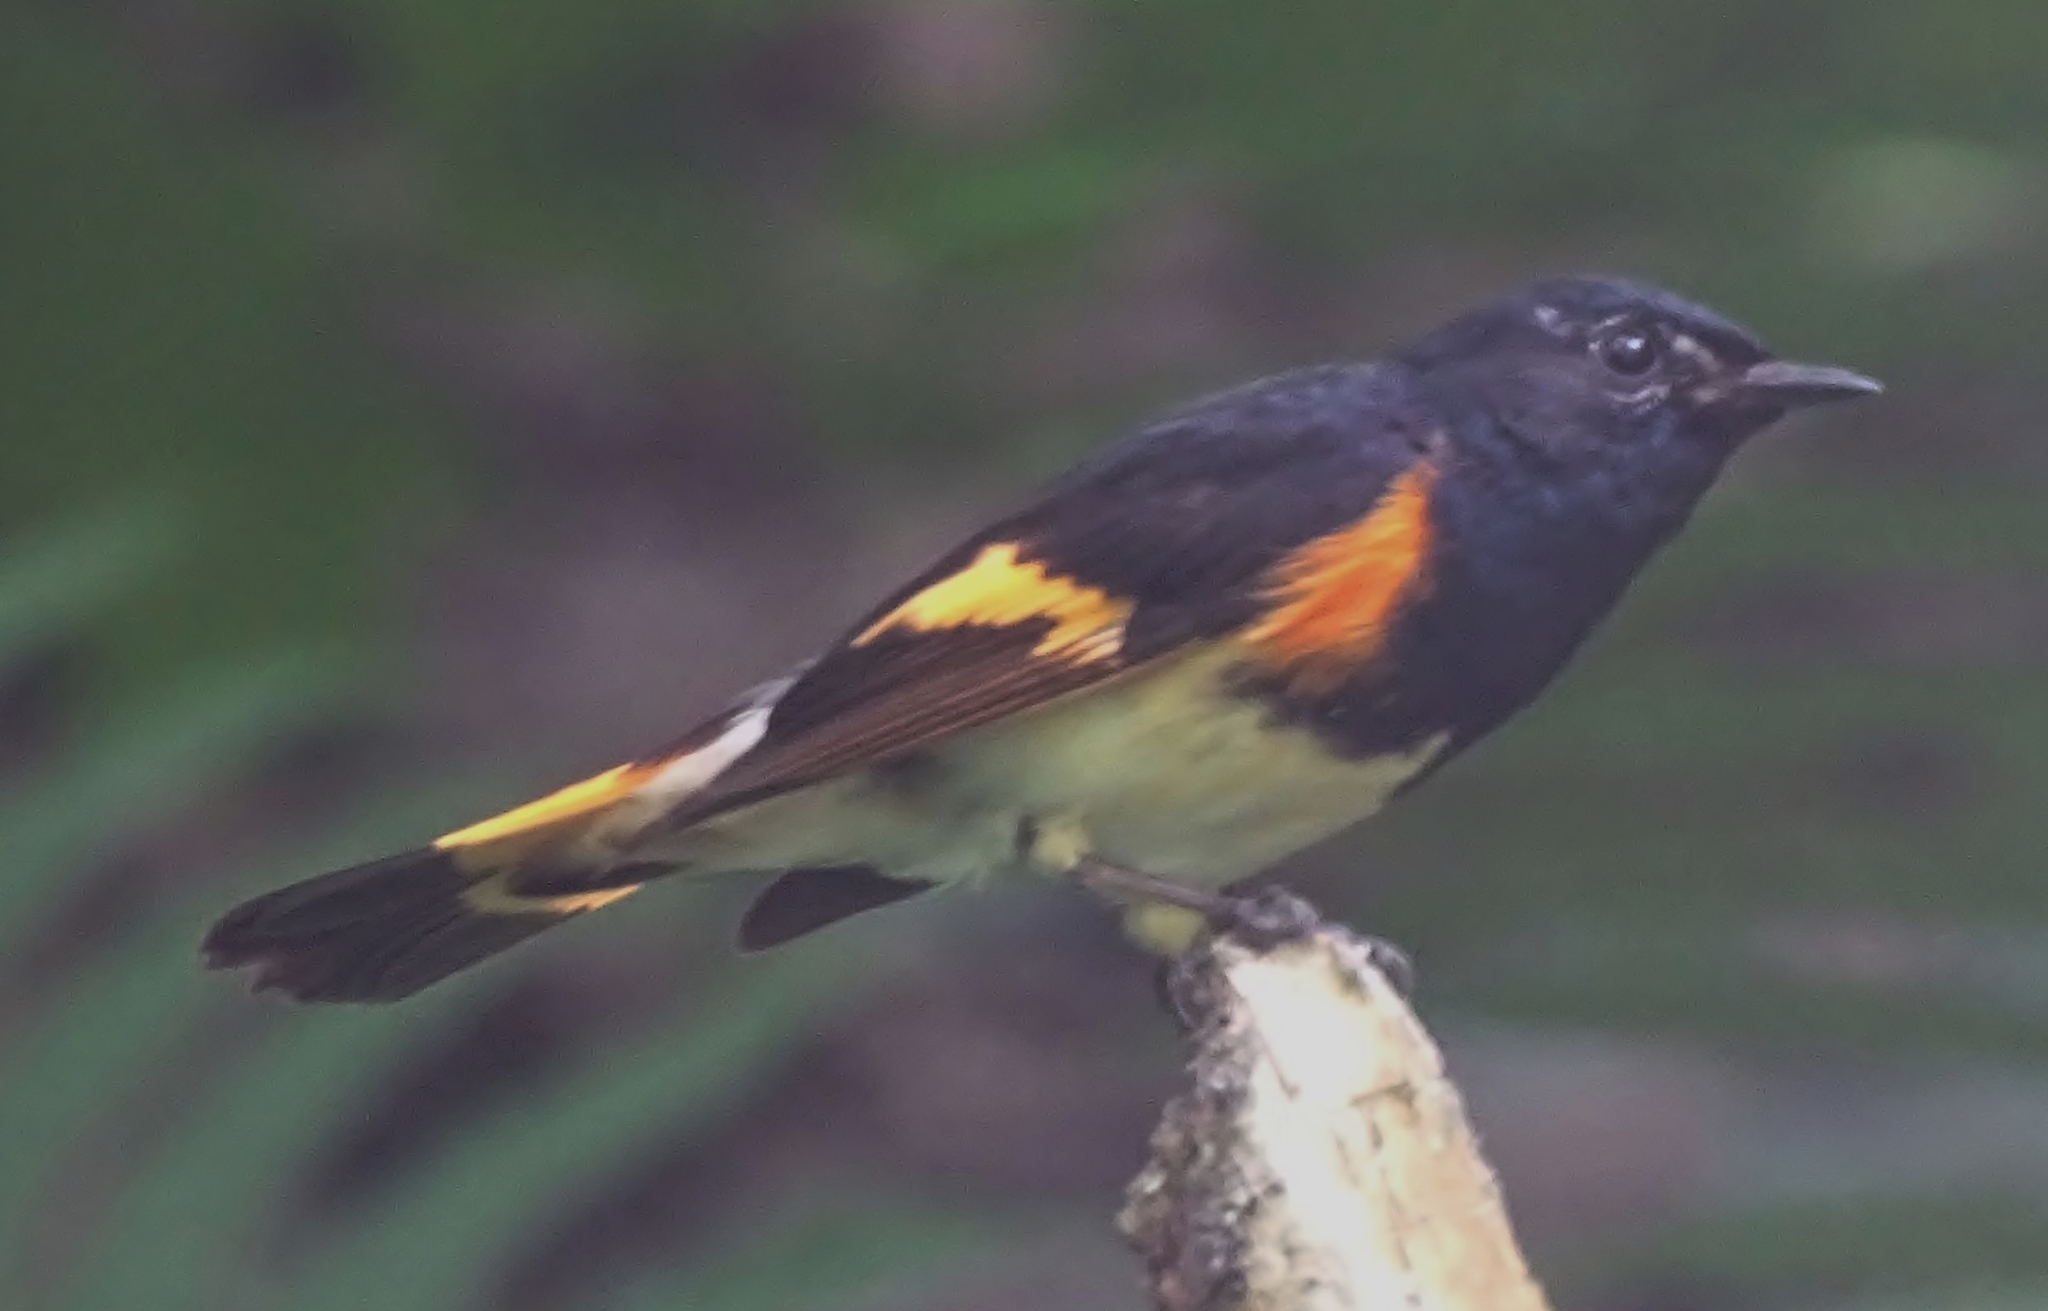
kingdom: Animalia
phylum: Chordata
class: Aves
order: Passeriformes
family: Parulidae
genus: Setophaga
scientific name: Setophaga ruticilla
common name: American redstart
